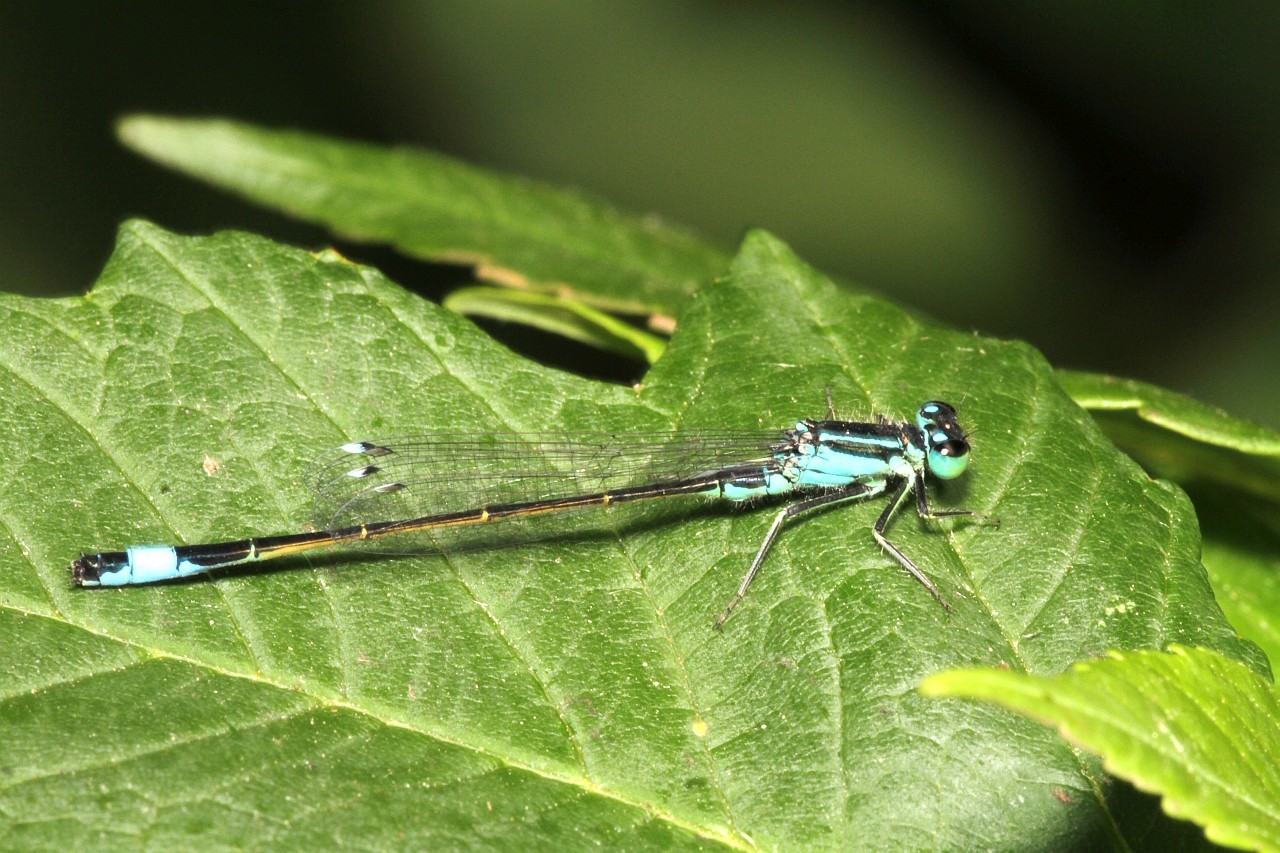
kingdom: Animalia
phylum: Arthropoda
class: Insecta
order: Odonata
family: Coenagrionidae
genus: Ischnura
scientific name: Ischnura elegans
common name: Blue-tailed damselfly
